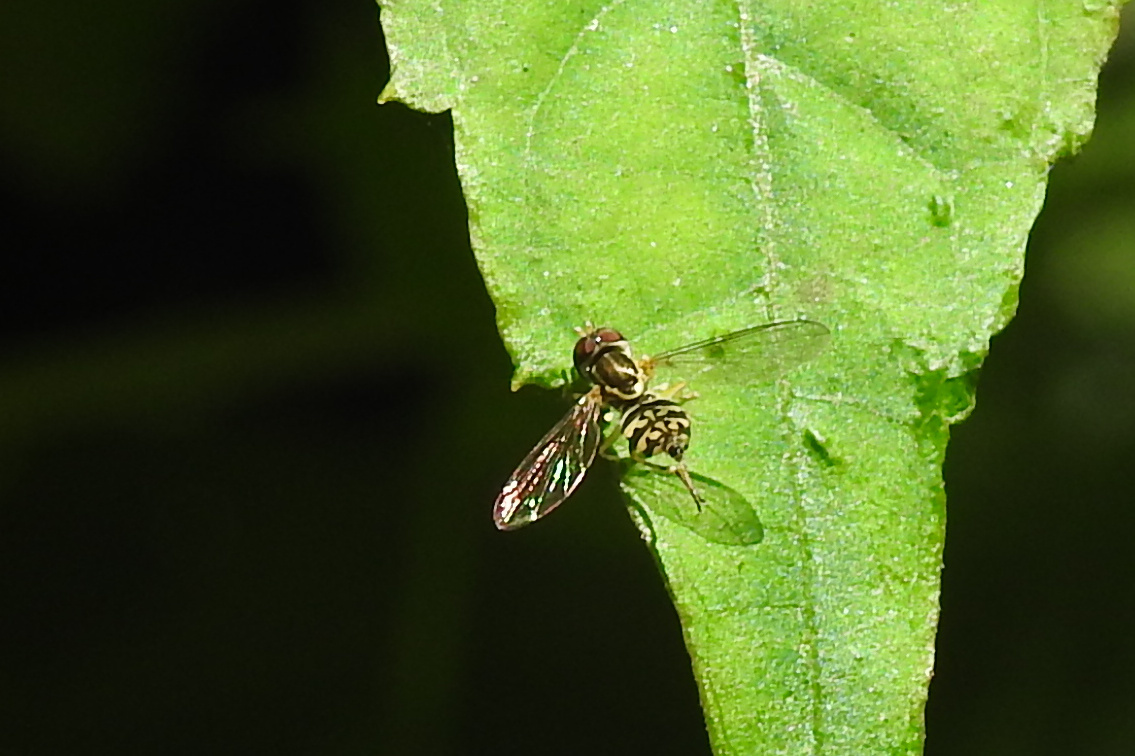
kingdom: Animalia
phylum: Arthropoda
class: Insecta
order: Diptera
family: Syrphidae
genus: Toxomerus
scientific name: Toxomerus geminatus
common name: Eastern calligrapher
